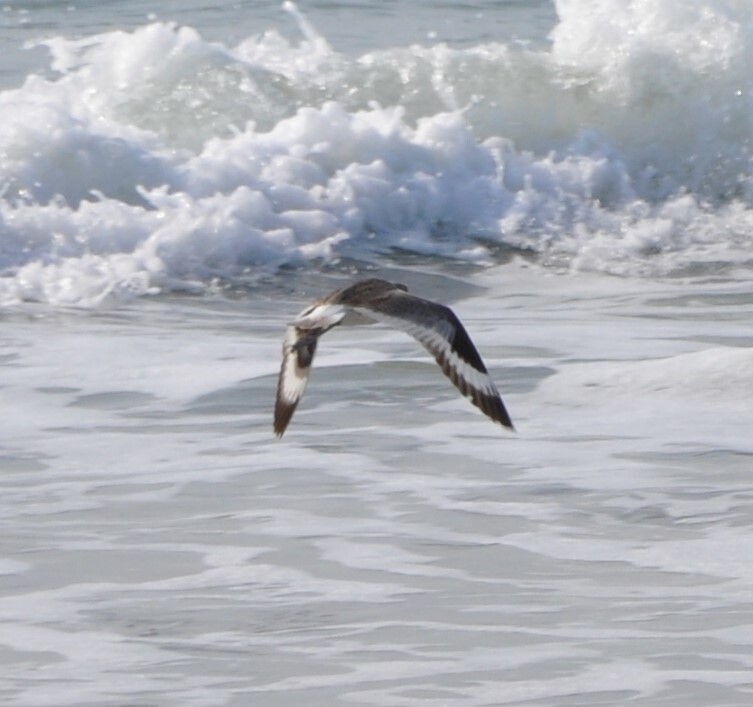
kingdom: Animalia
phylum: Chordata
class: Aves
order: Charadriiformes
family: Scolopacidae
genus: Tringa
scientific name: Tringa semipalmata
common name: Willet
